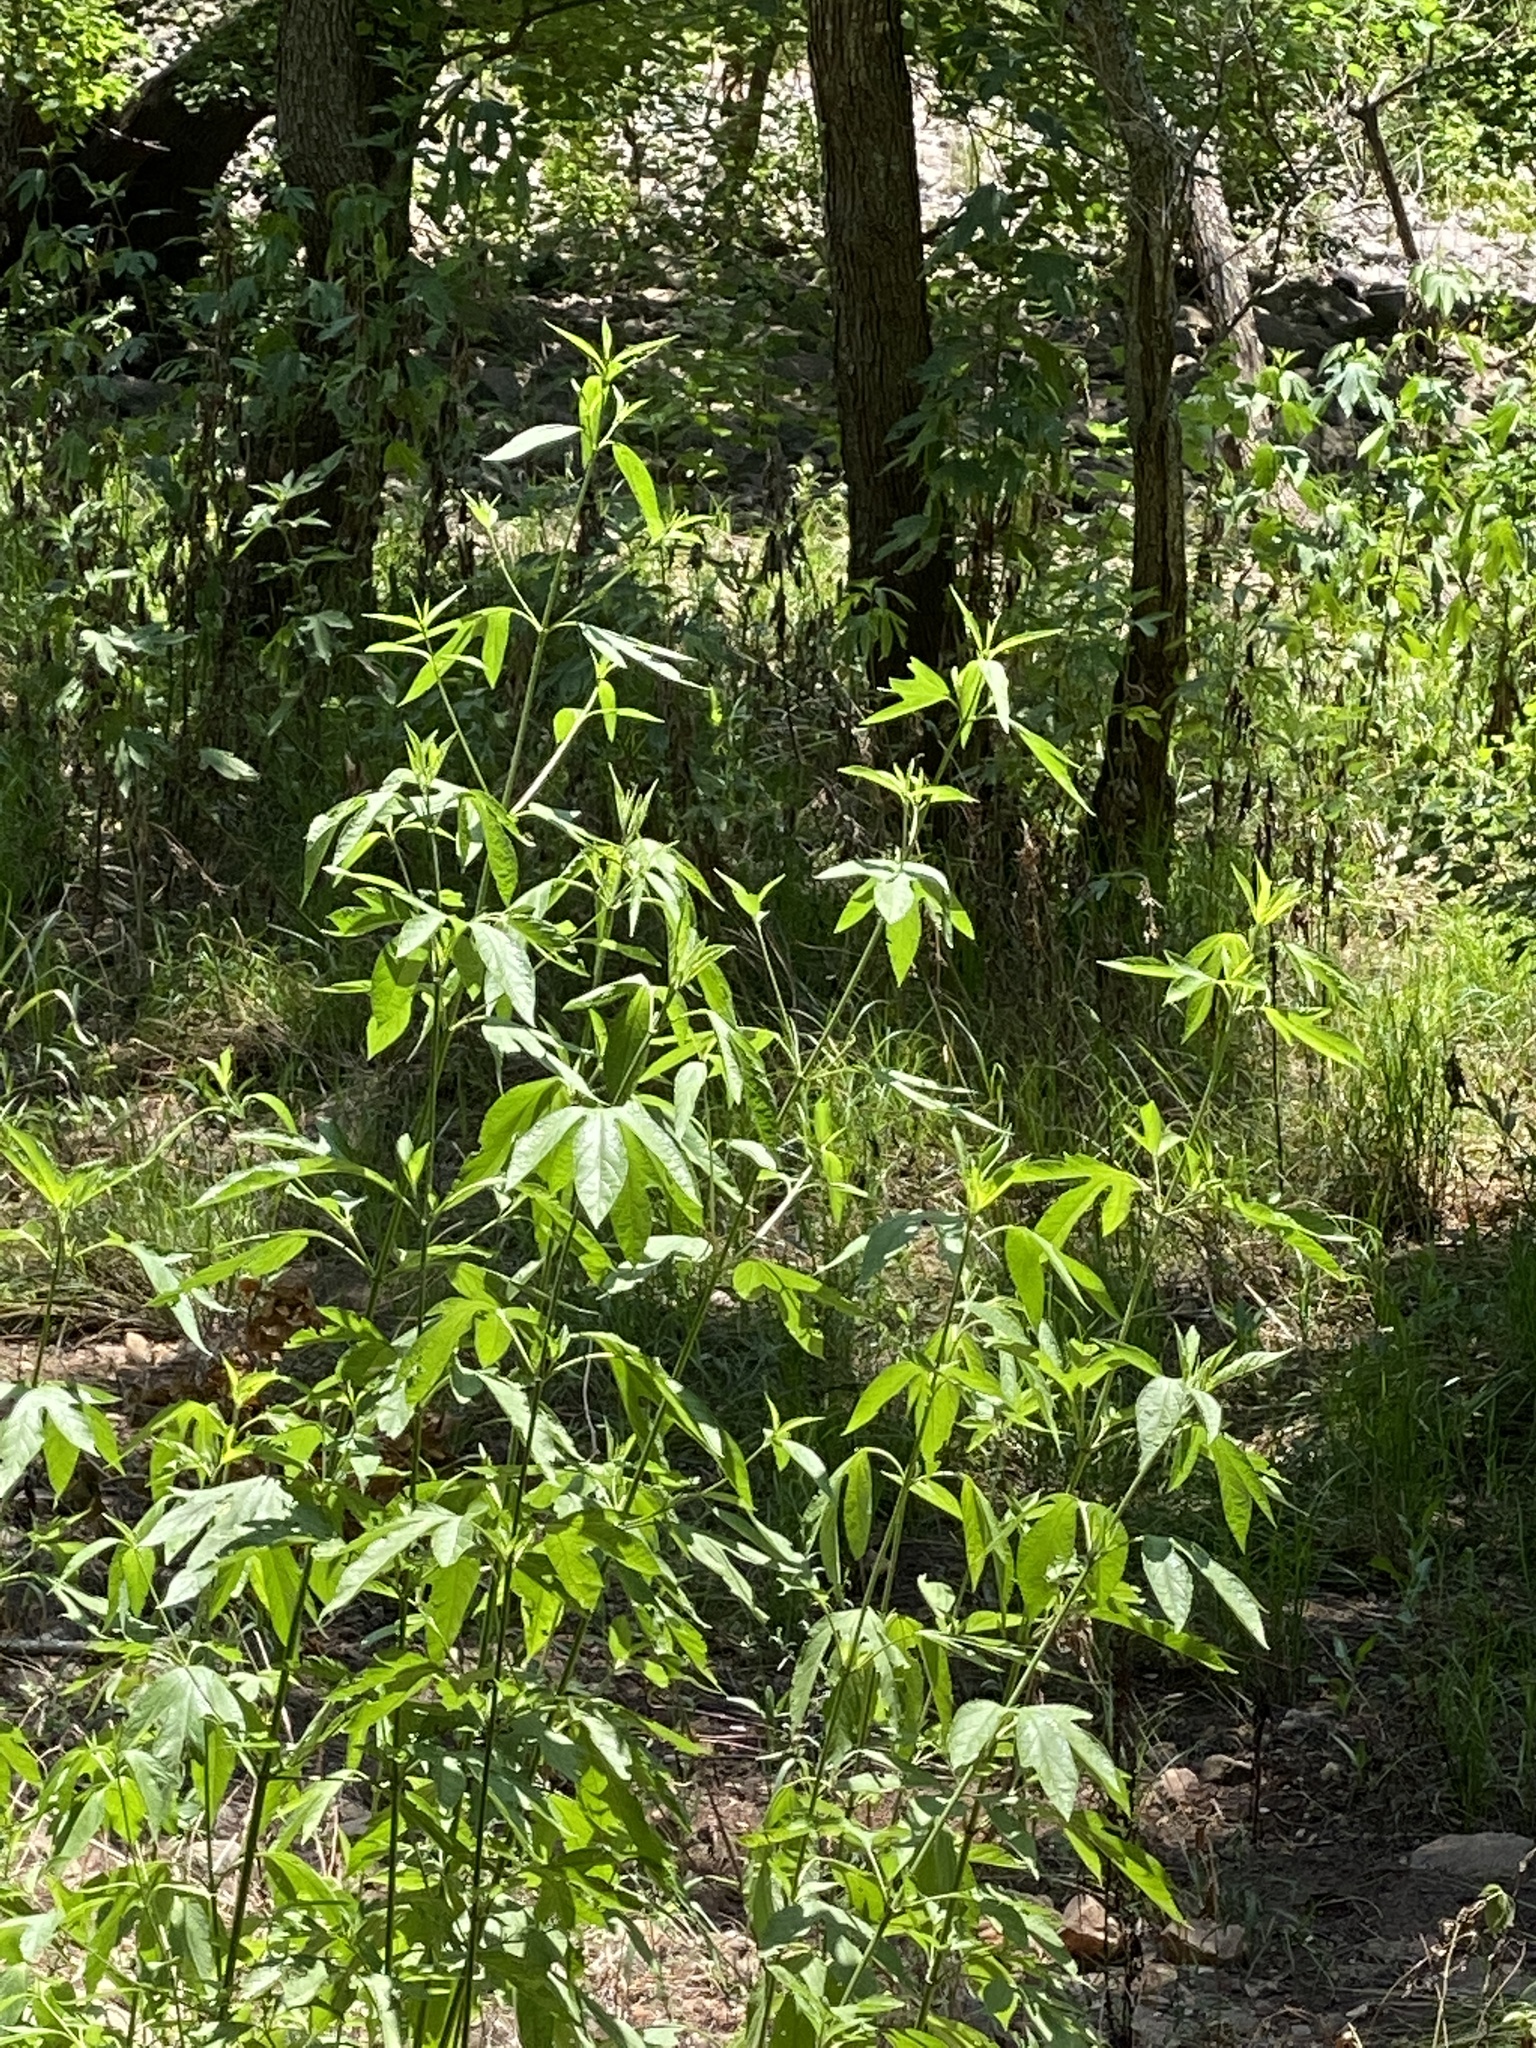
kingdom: Plantae
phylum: Tracheophyta
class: Magnoliopsida
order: Asterales
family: Asteraceae
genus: Ambrosia
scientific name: Ambrosia trifida
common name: Giant ragweed
